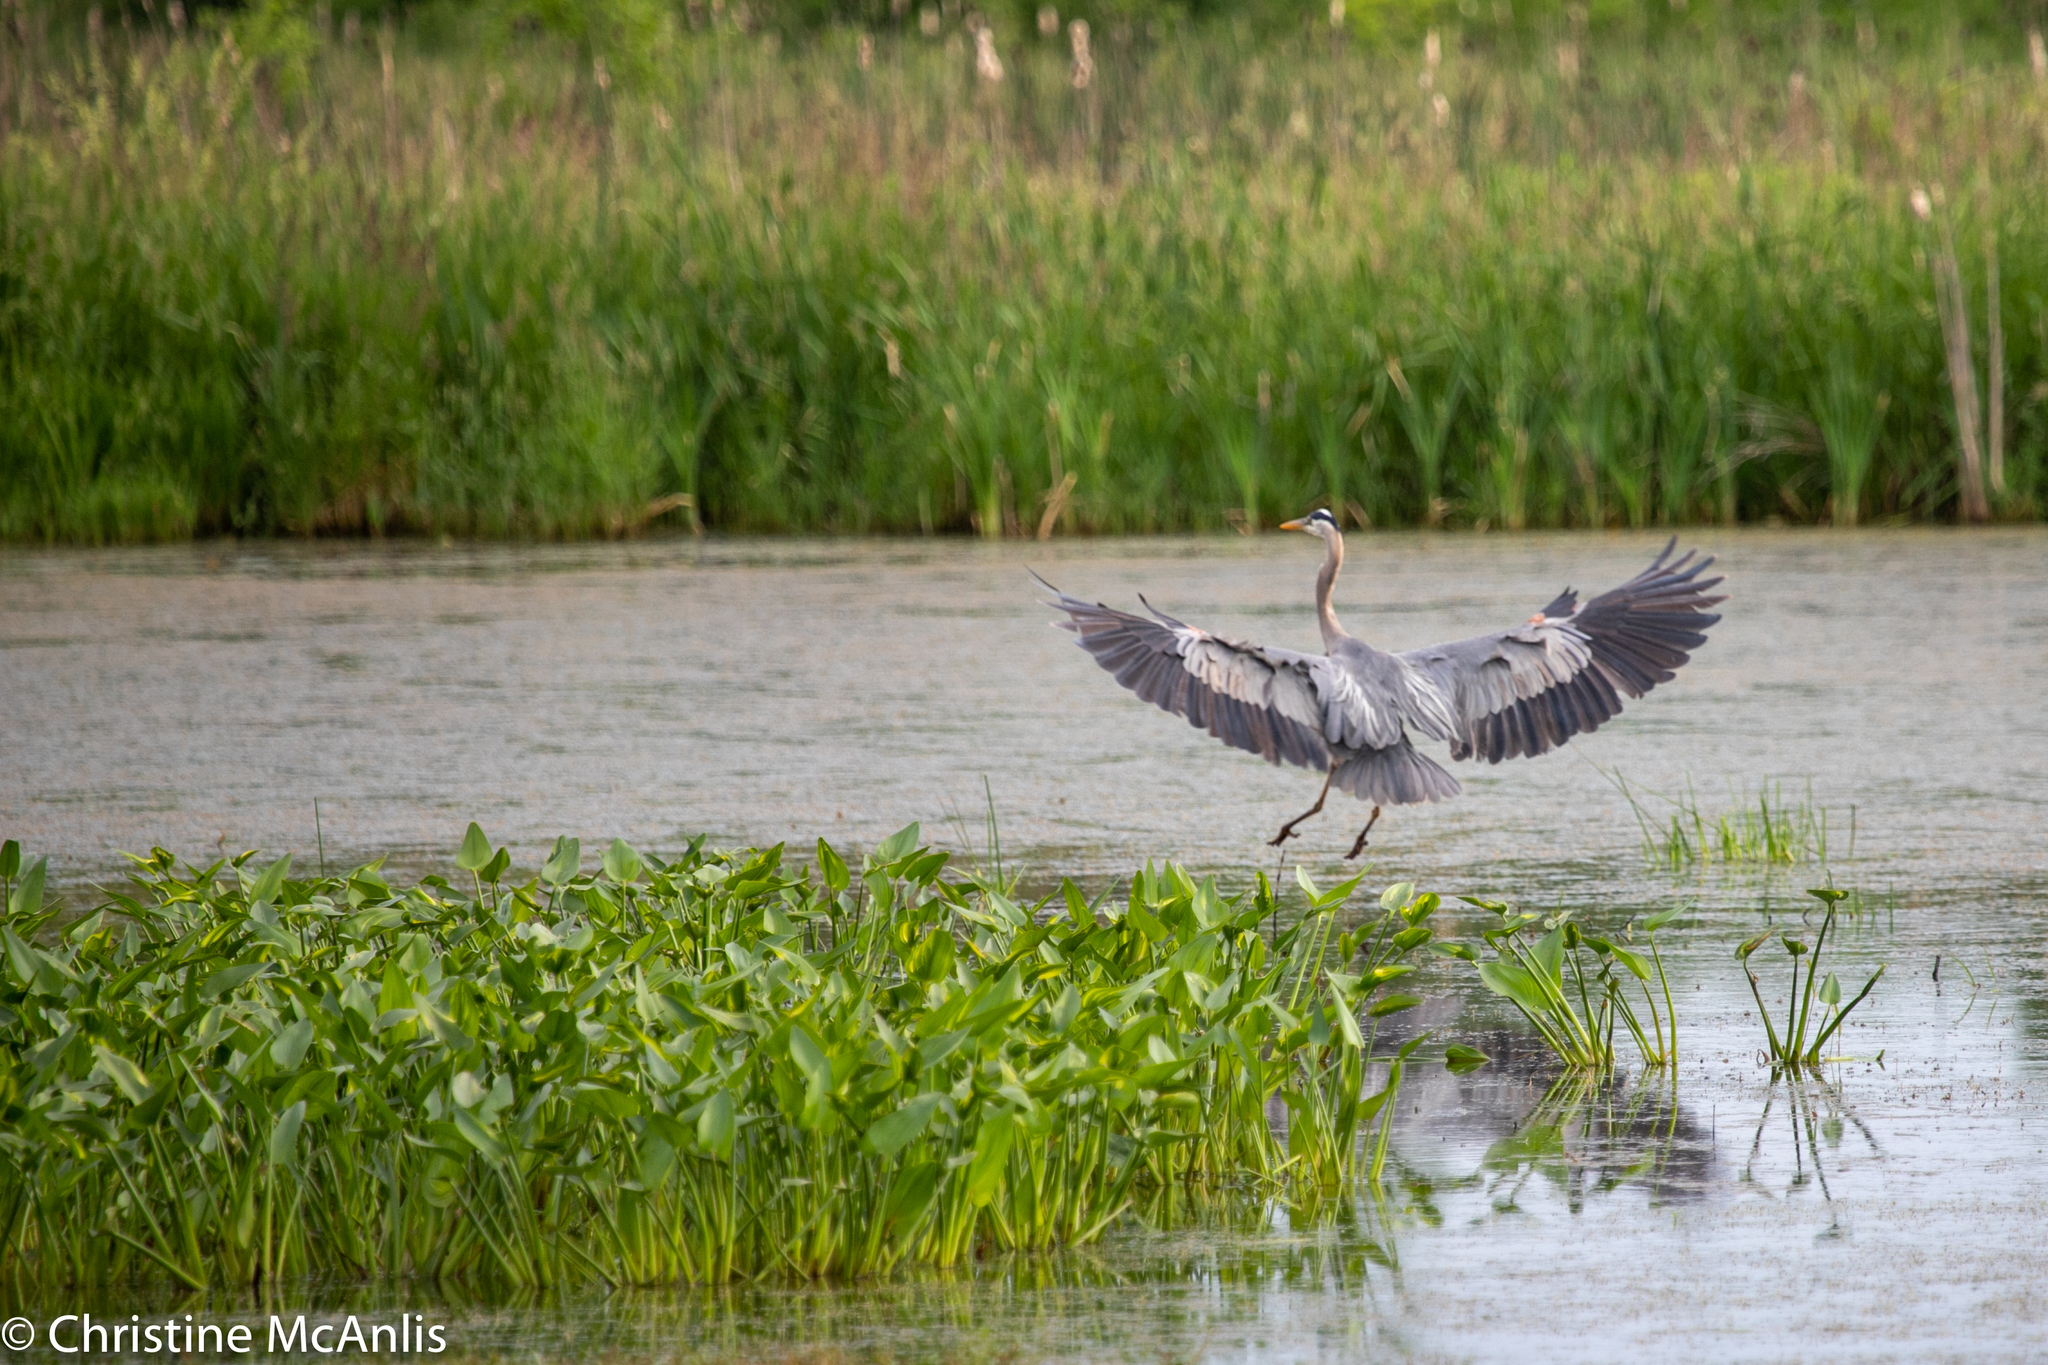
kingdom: Animalia
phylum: Chordata
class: Aves
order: Pelecaniformes
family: Ardeidae
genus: Ardea
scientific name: Ardea herodias
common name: Great blue heron
